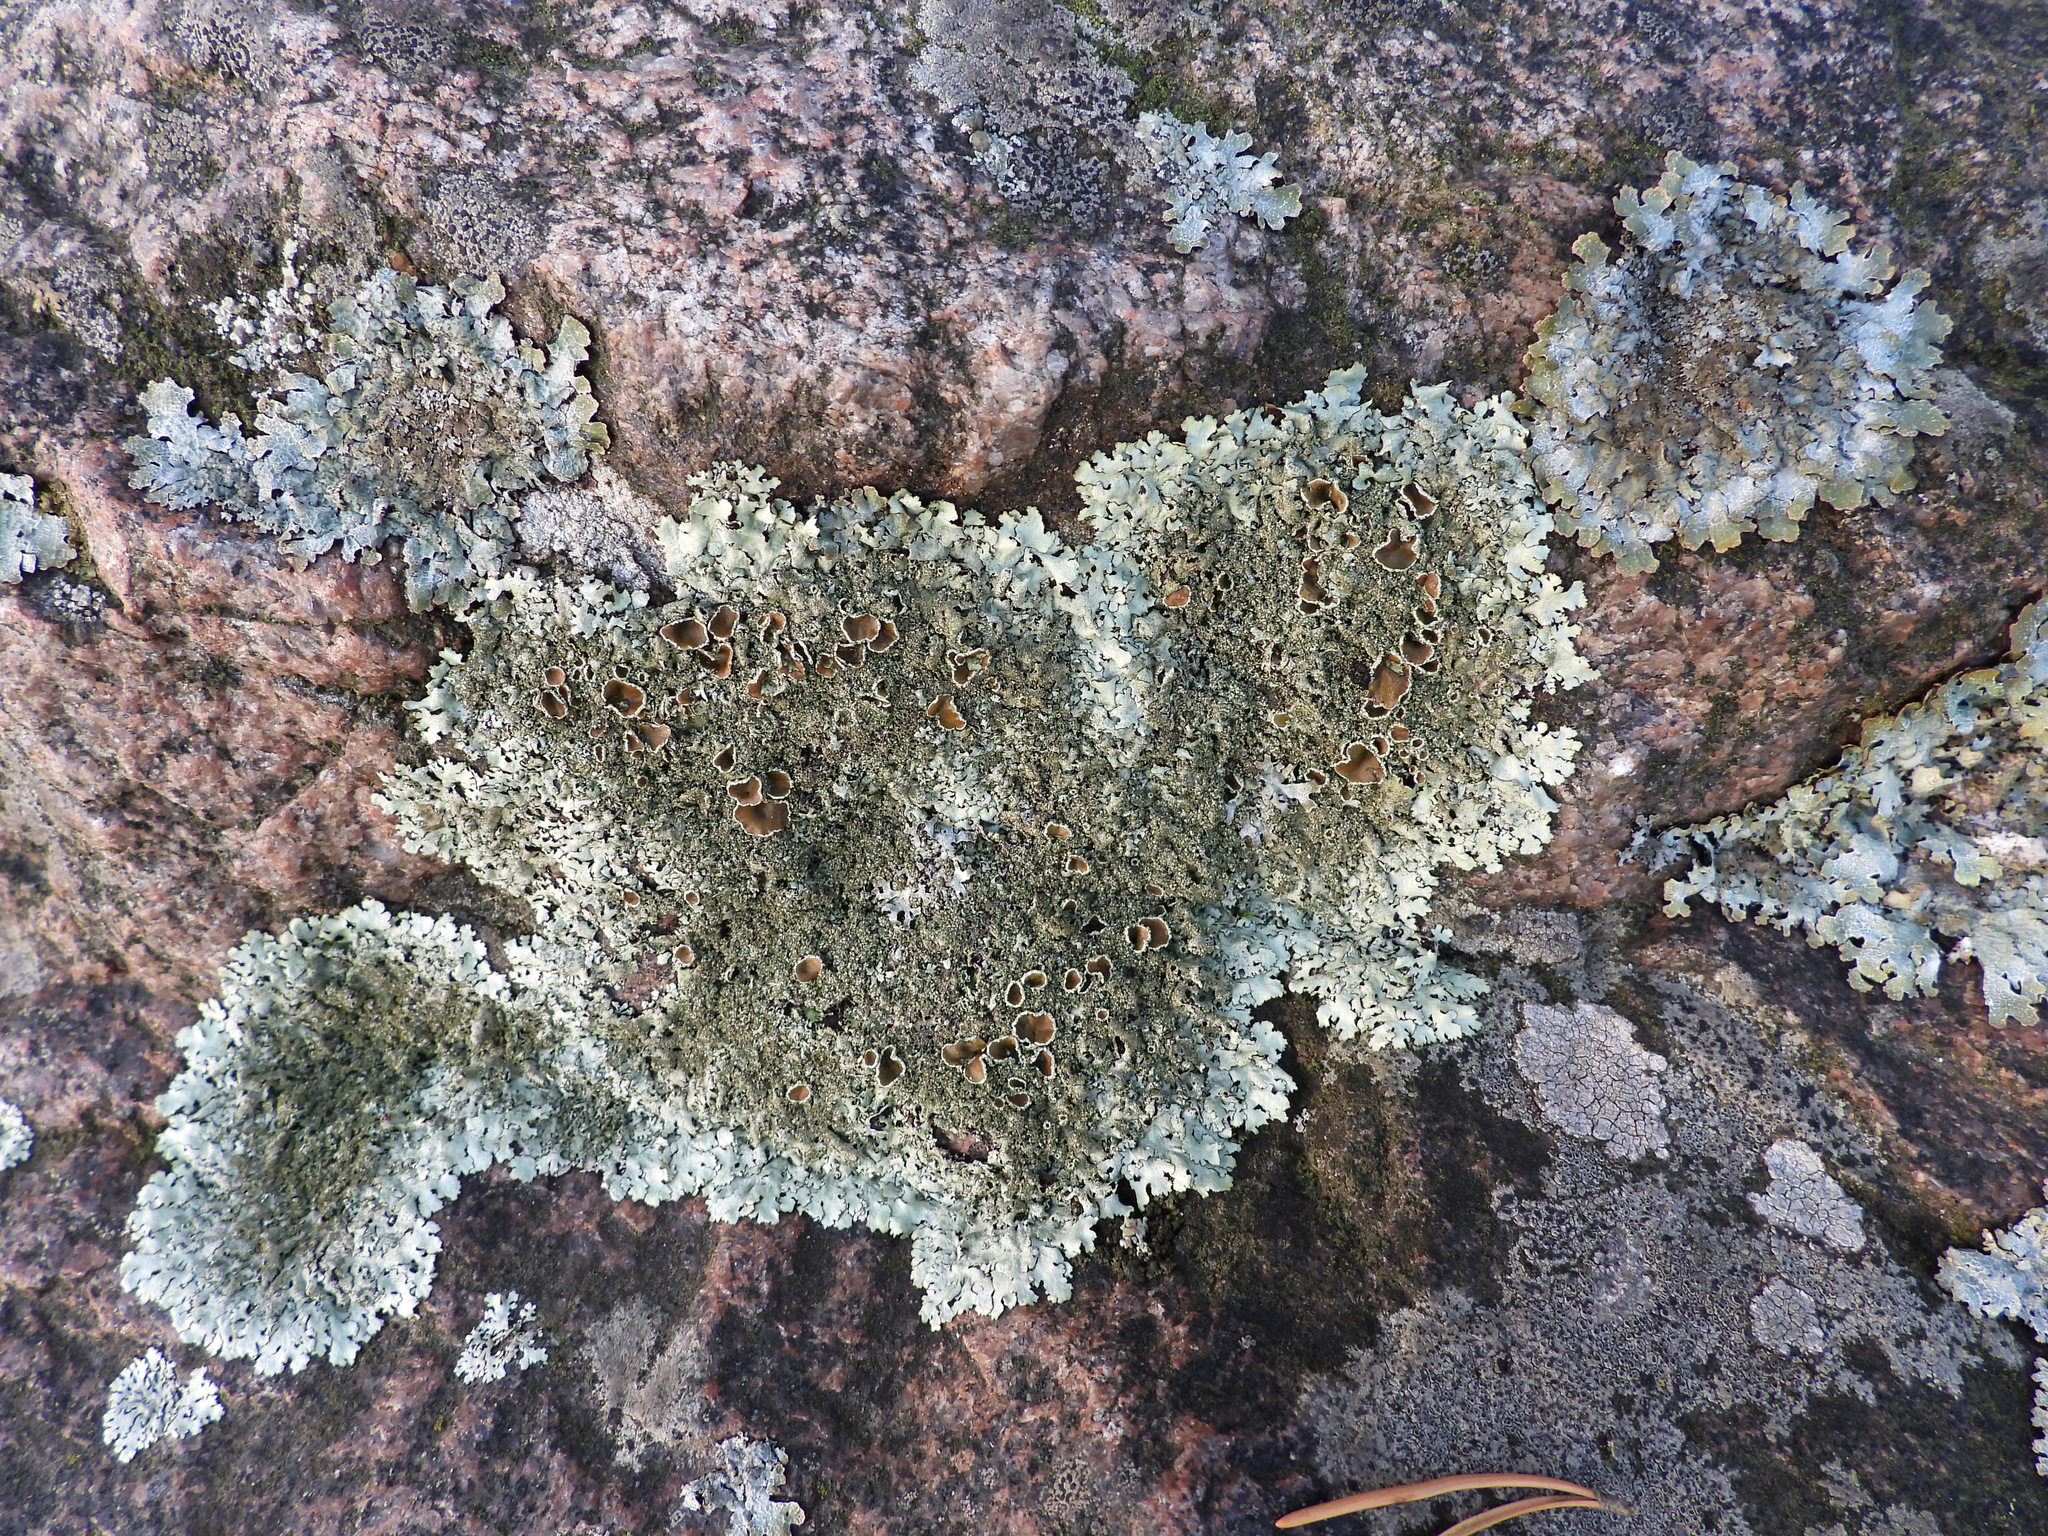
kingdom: Fungi
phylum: Ascomycota
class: Lecanoromycetes
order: Lecanorales
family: Parmeliaceae
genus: Xanthoparmelia
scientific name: Xanthoparmelia conspersa
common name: Peppered rock shield
